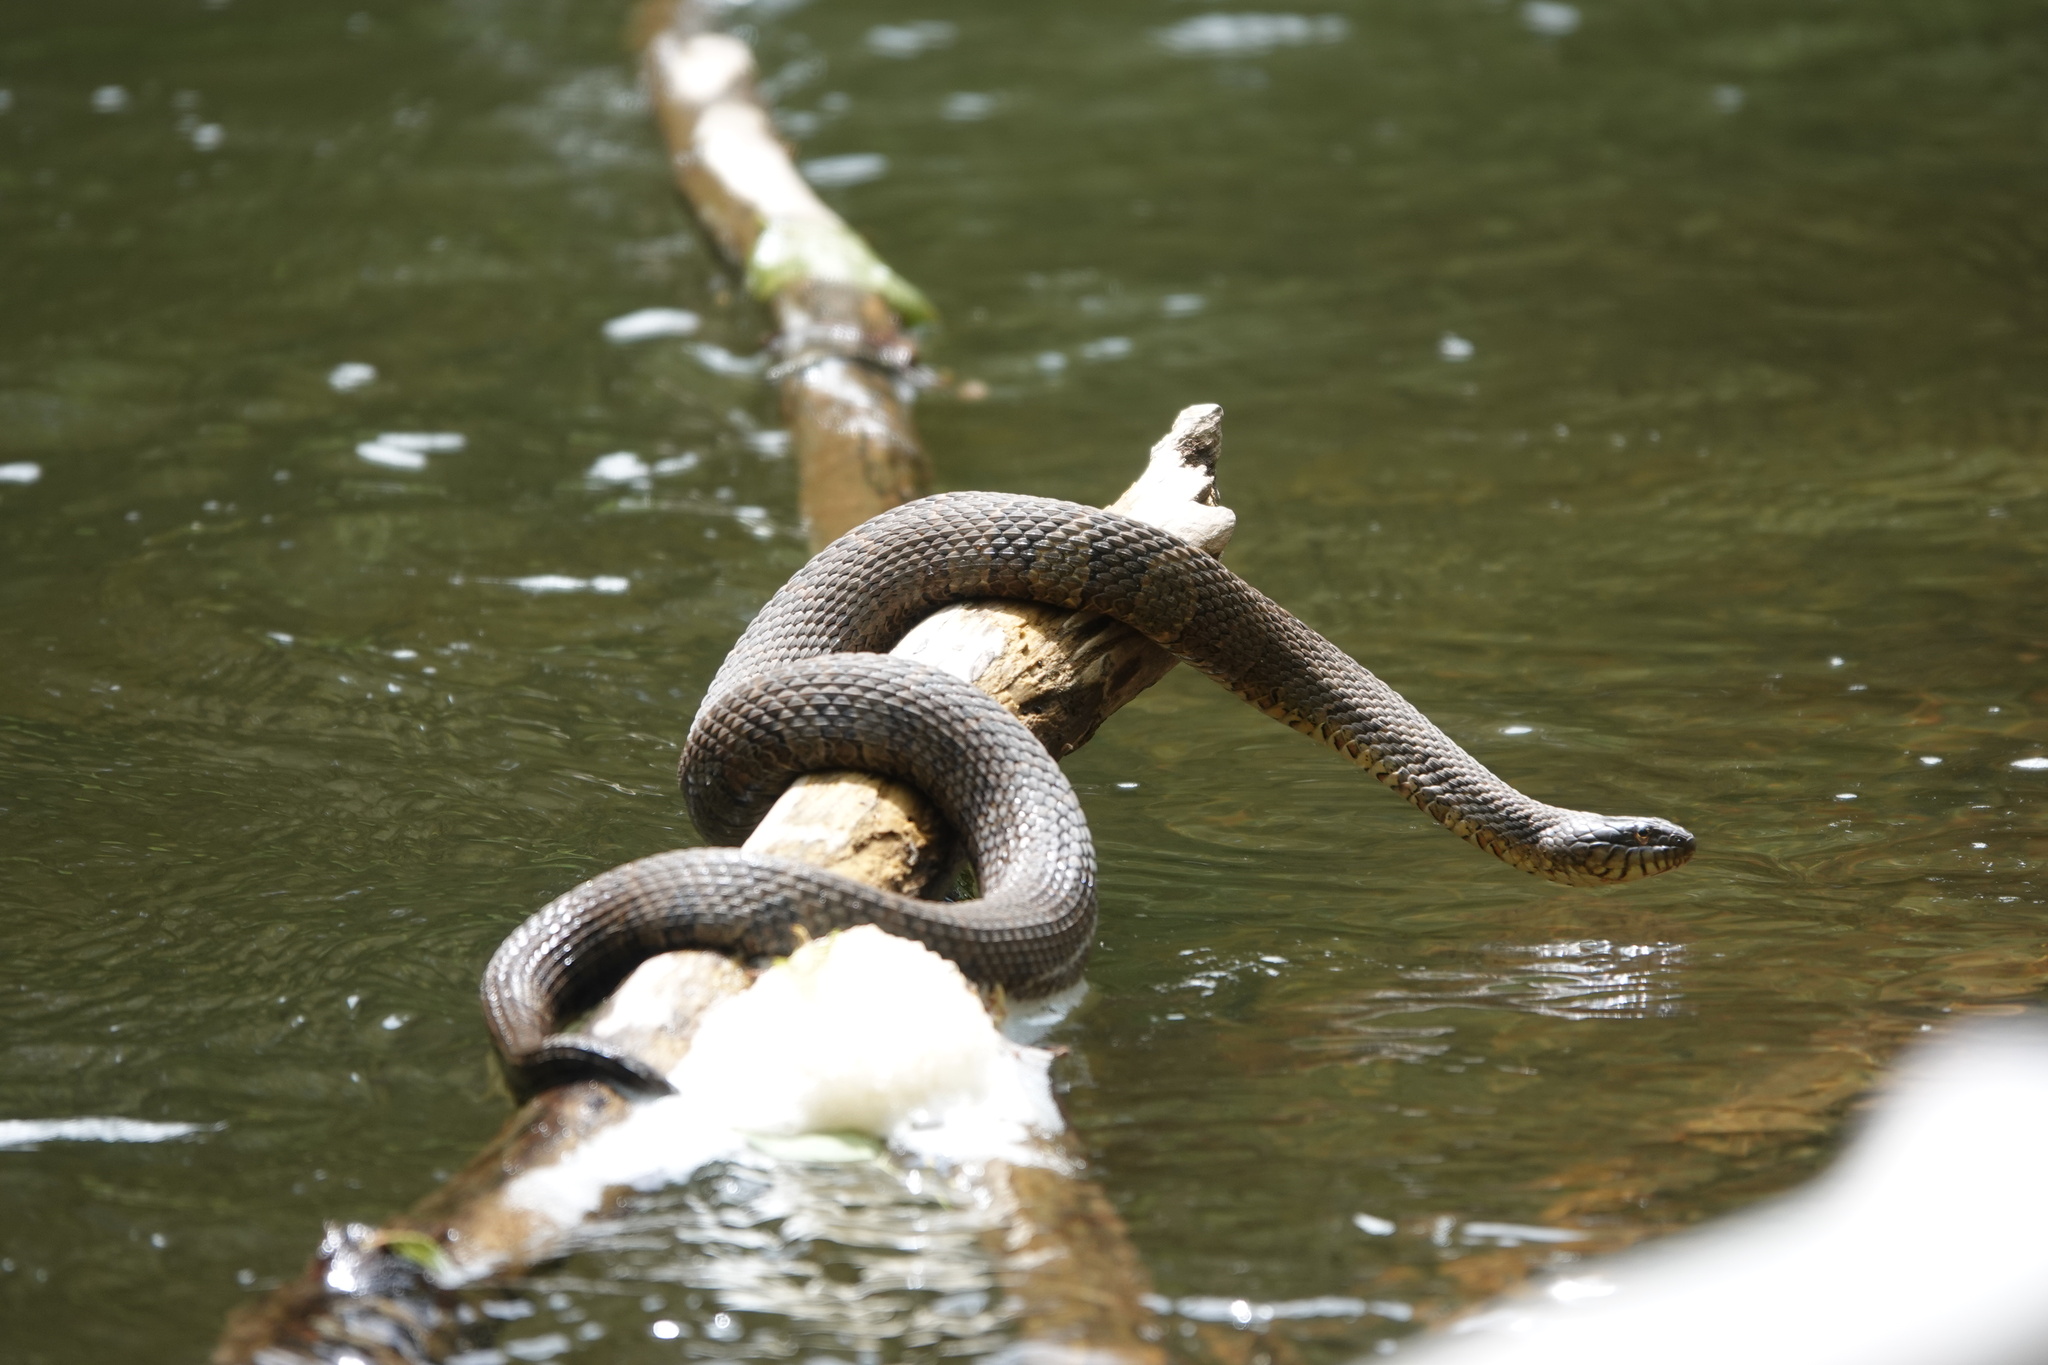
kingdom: Animalia
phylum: Chordata
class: Squamata
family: Colubridae
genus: Nerodia
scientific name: Nerodia sipedon
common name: Northern water snake
